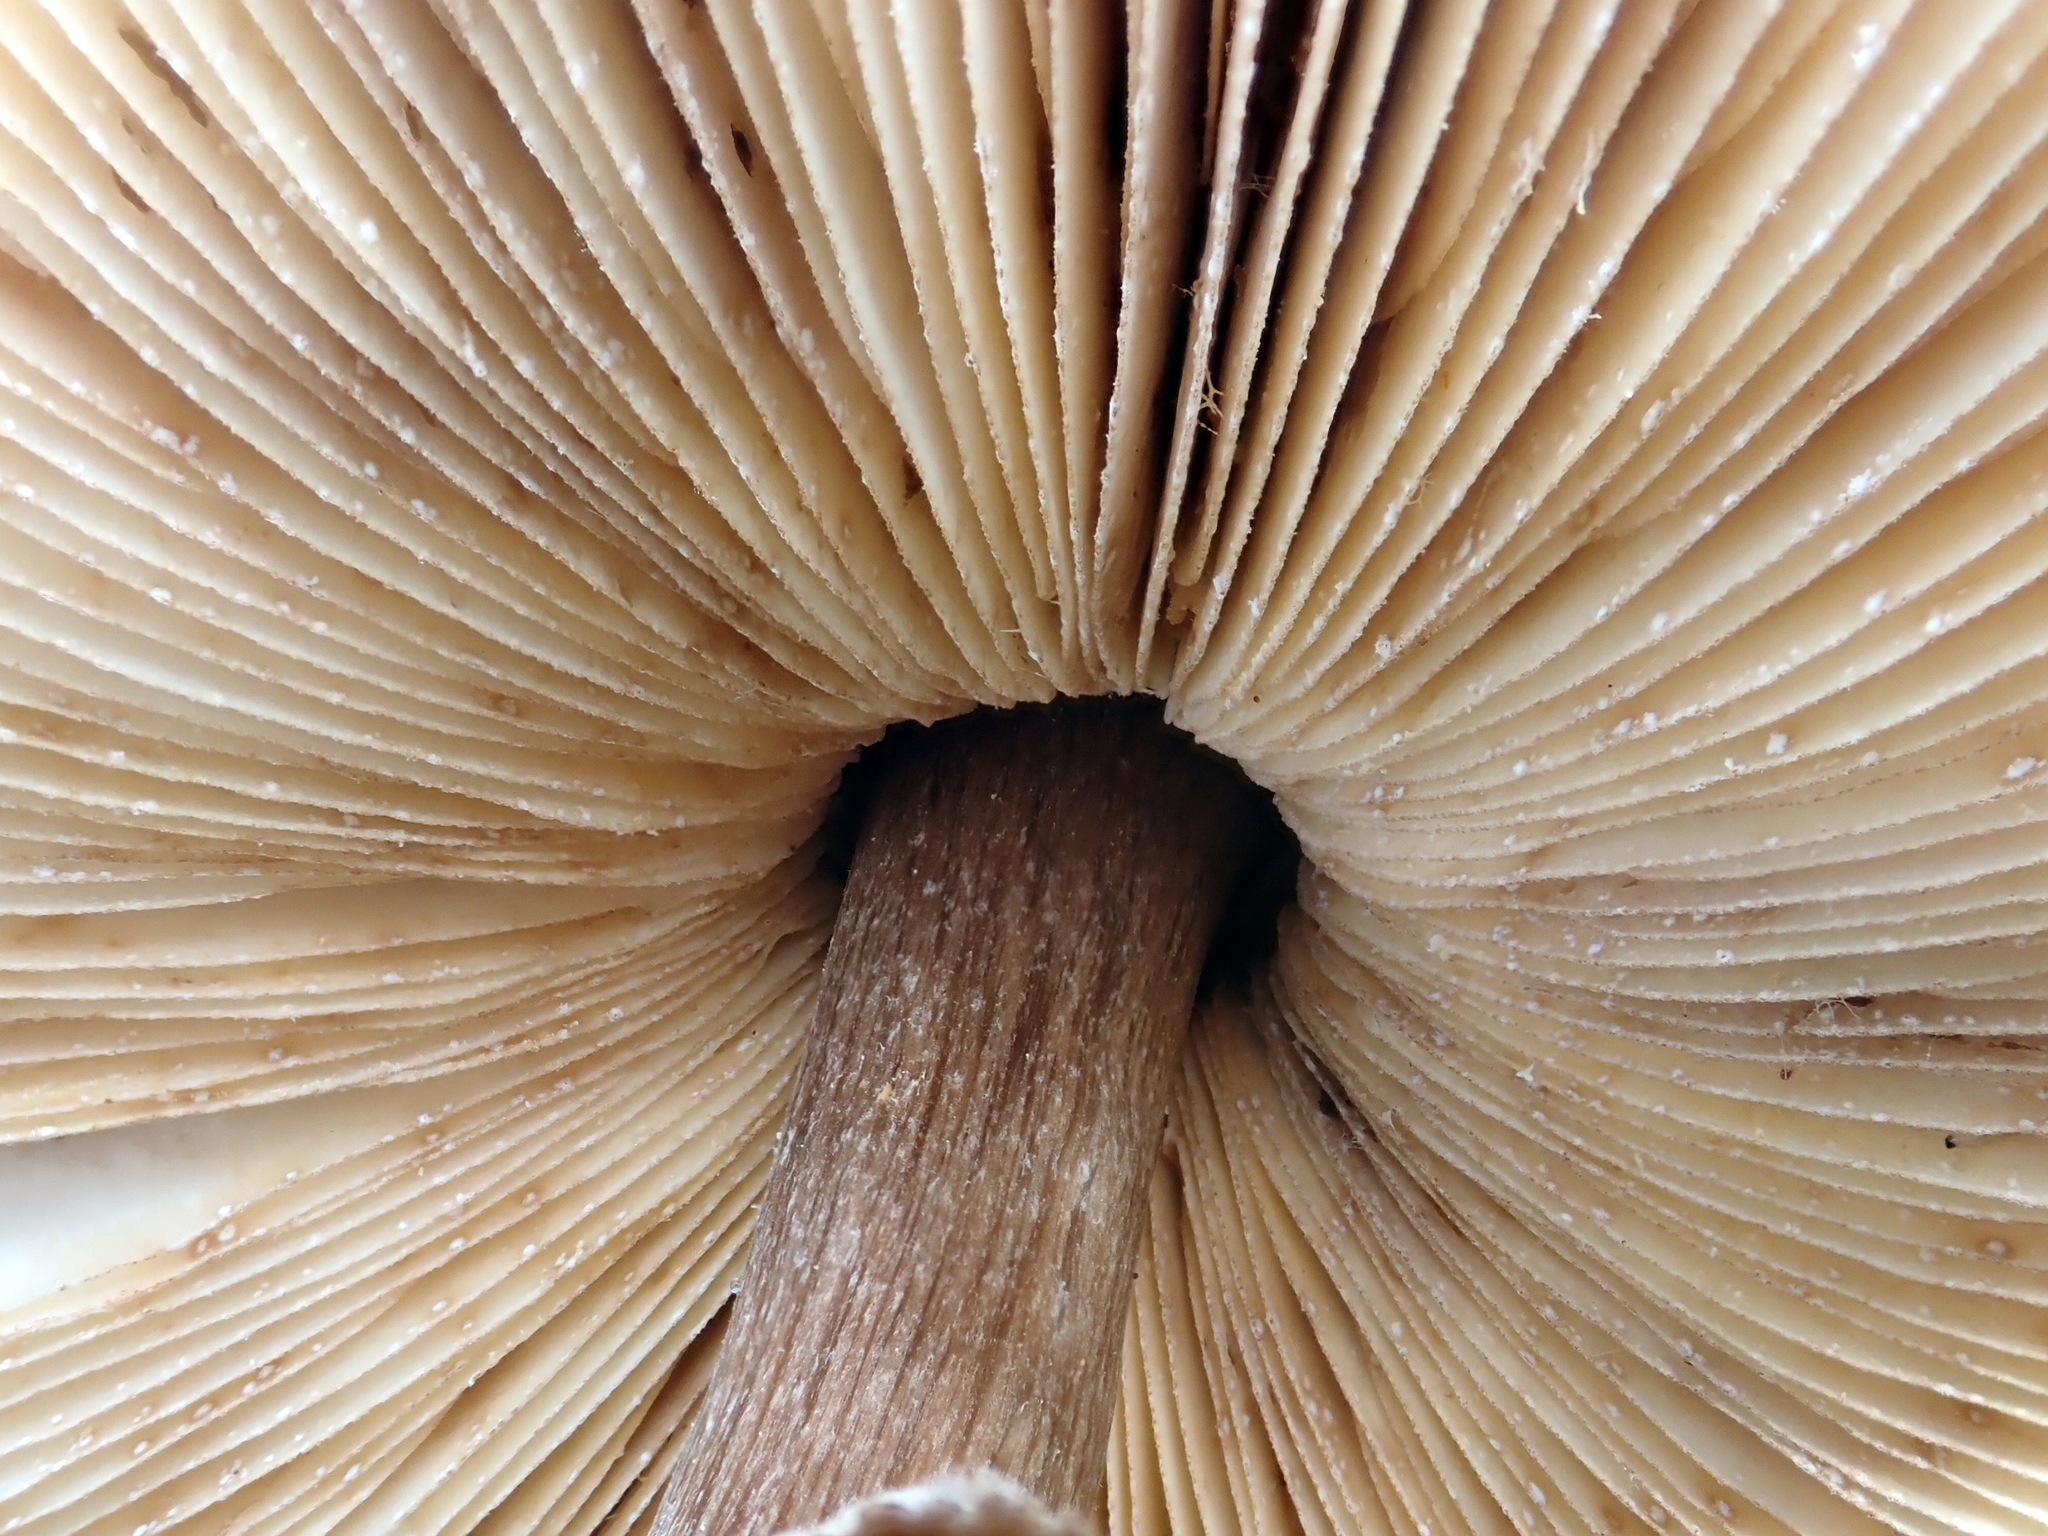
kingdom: Fungi
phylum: Basidiomycota
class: Agaricomycetes
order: Agaricales
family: Agaricaceae
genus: Macrolepiota
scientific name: Macrolepiota clelandii
